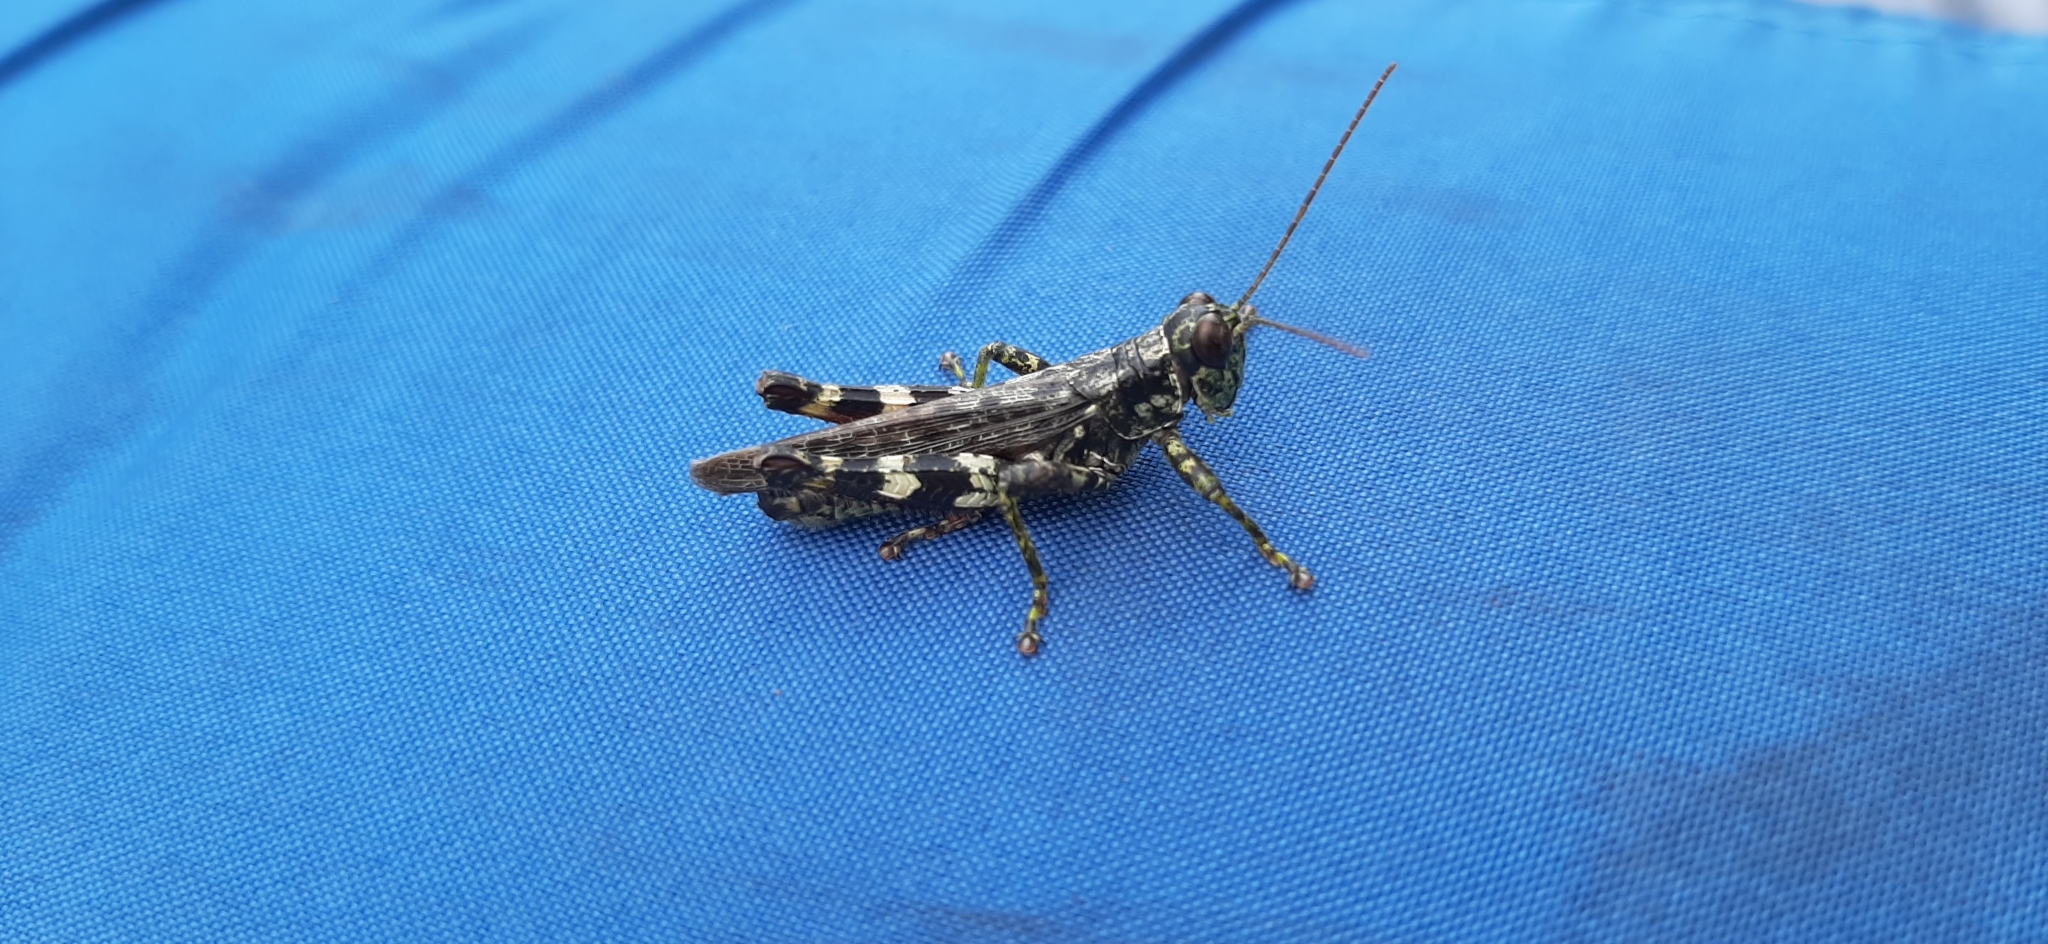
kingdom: Animalia
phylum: Arthropoda
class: Insecta
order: Orthoptera
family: Acrididae
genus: Melanoplus
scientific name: Melanoplus punctulatus
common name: Pine-tree spur-throat grasshopper
